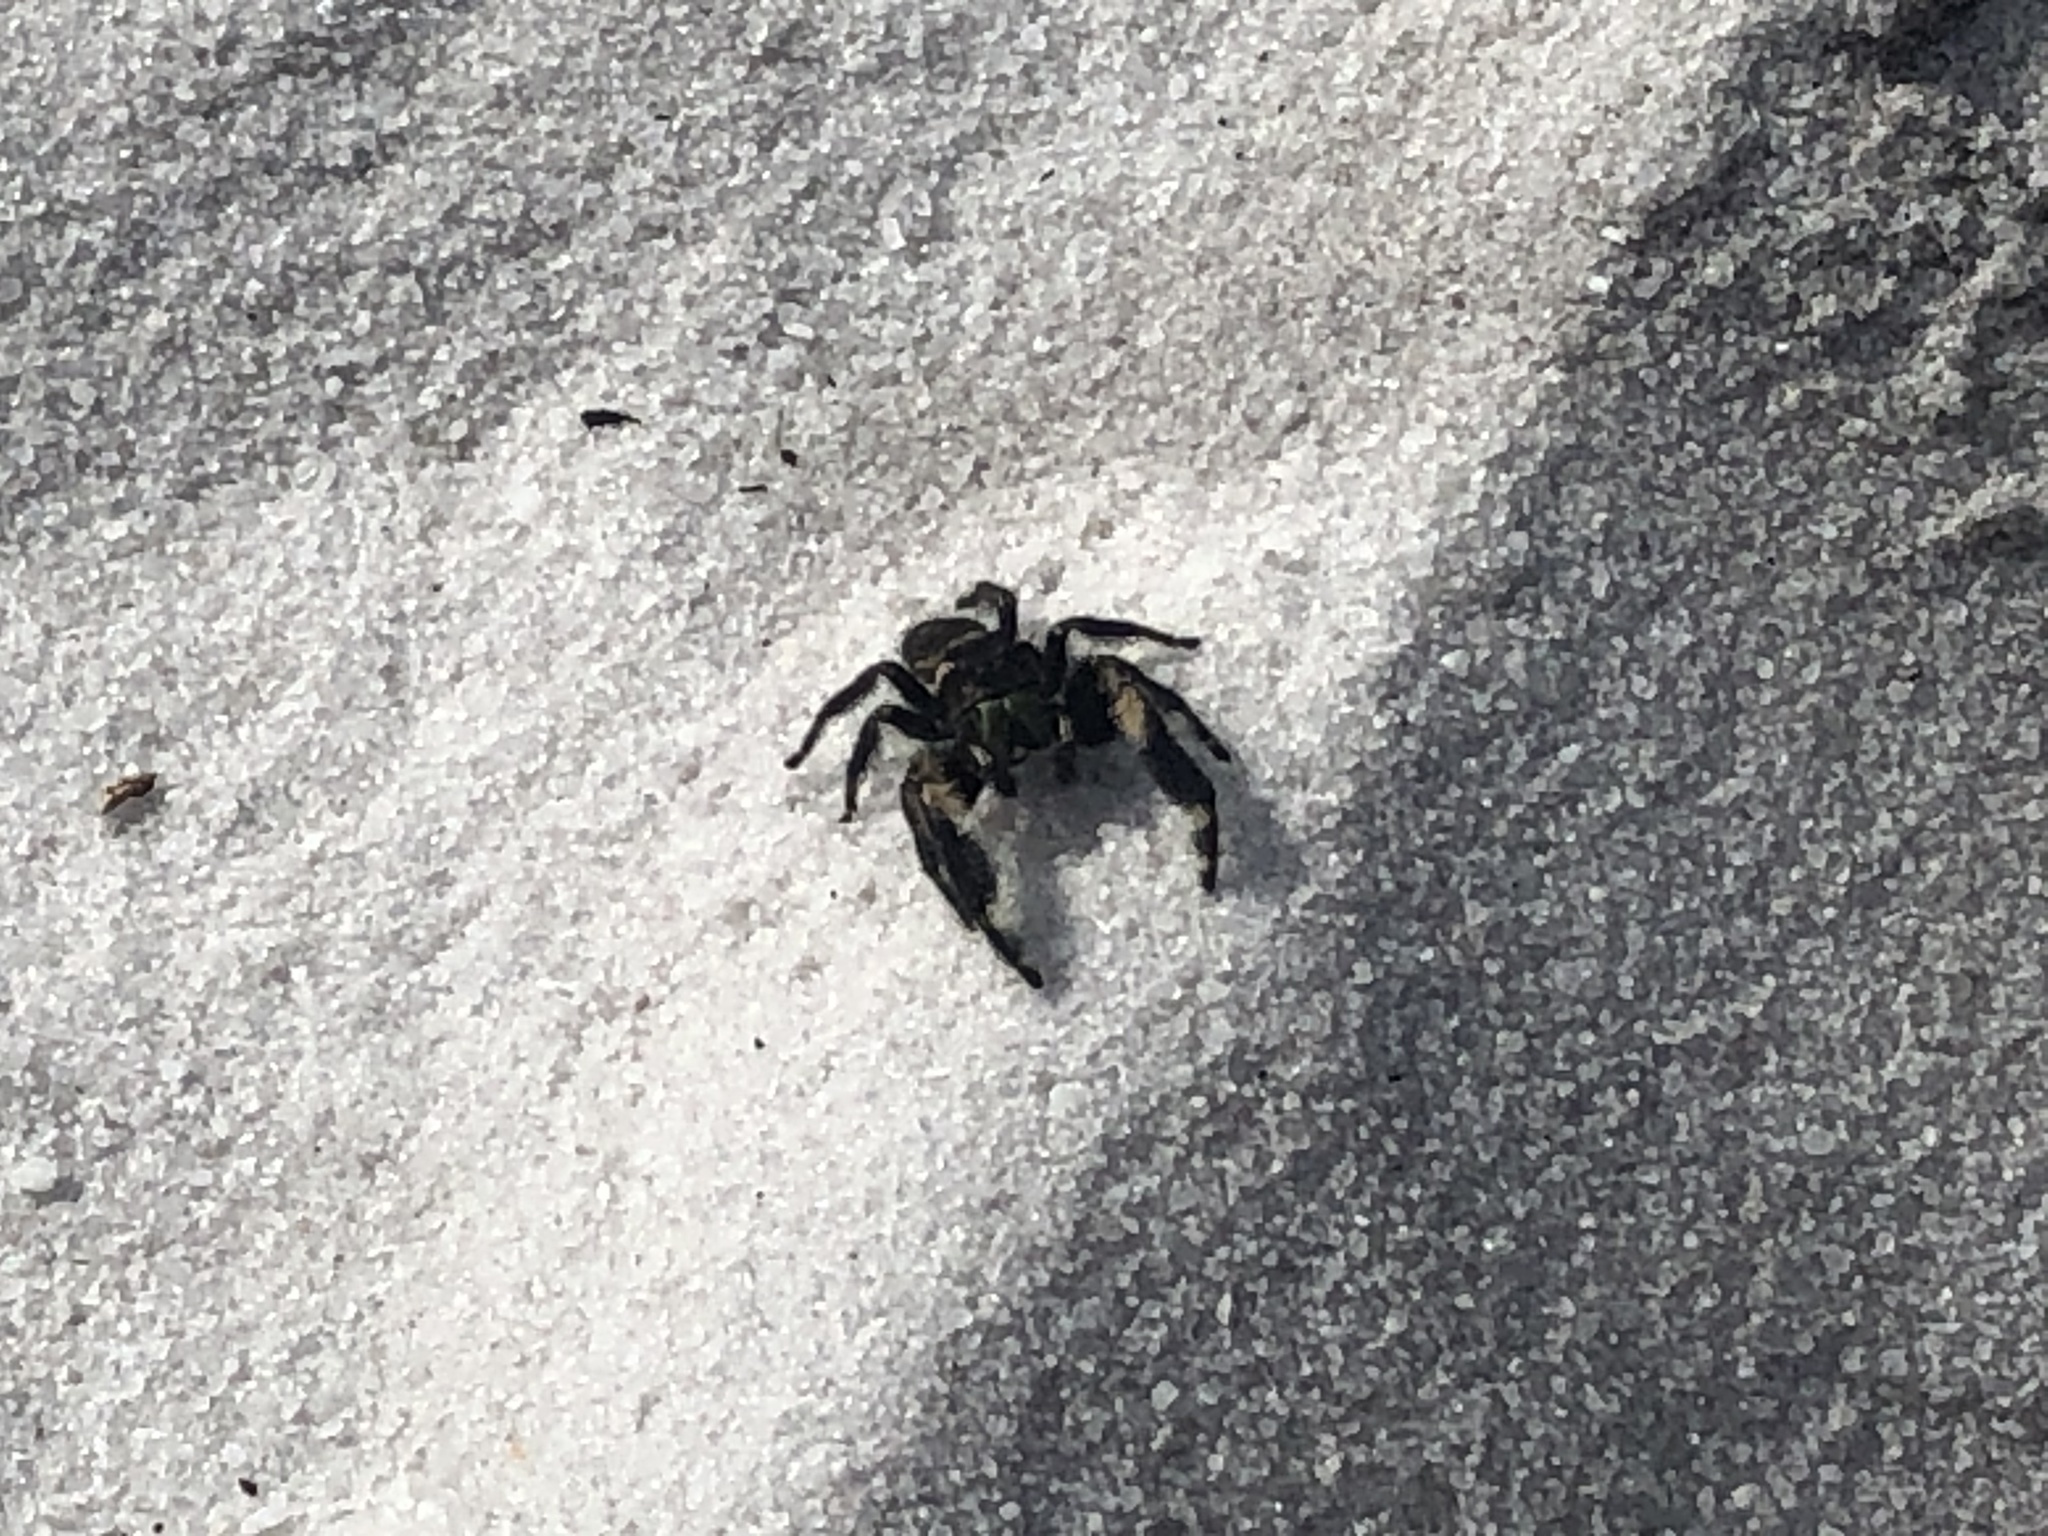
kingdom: Animalia
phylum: Arthropoda
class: Arachnida
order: Araneae
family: Salticidae
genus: Phidippus
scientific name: Phidippus otiosus
